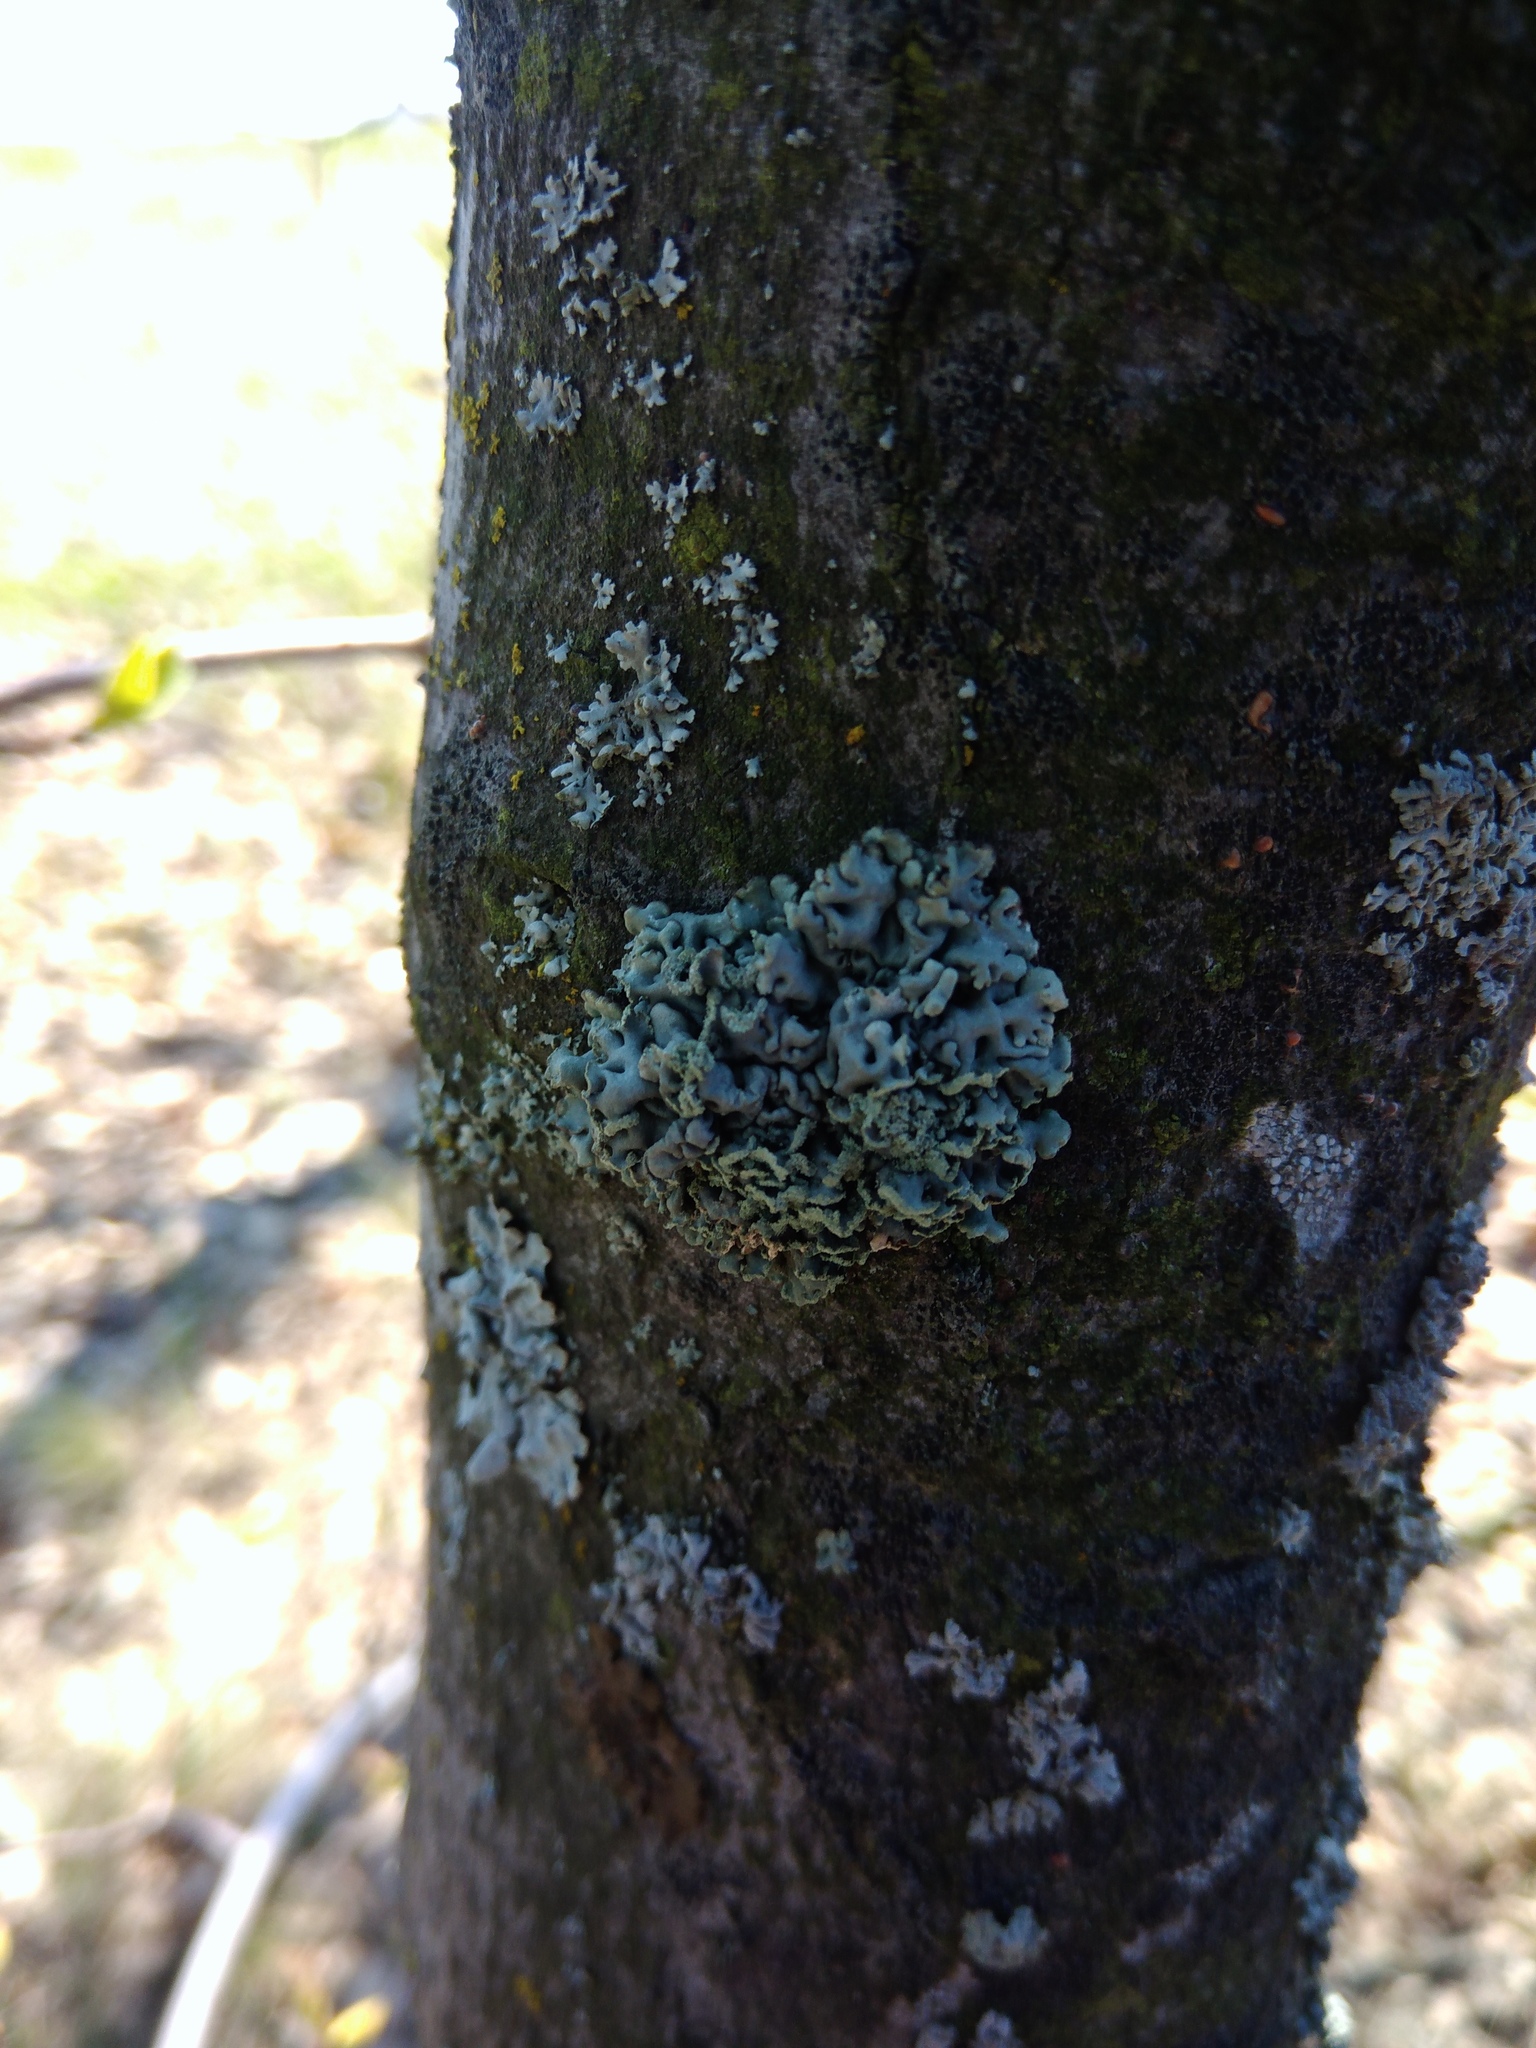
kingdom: Fungi
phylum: Ascomycota
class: Lecanoromycetes
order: Lecanorales
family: Parmeliaceae
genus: Hypogymnia
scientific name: Hypogymnia physodes
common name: Dark crottle
